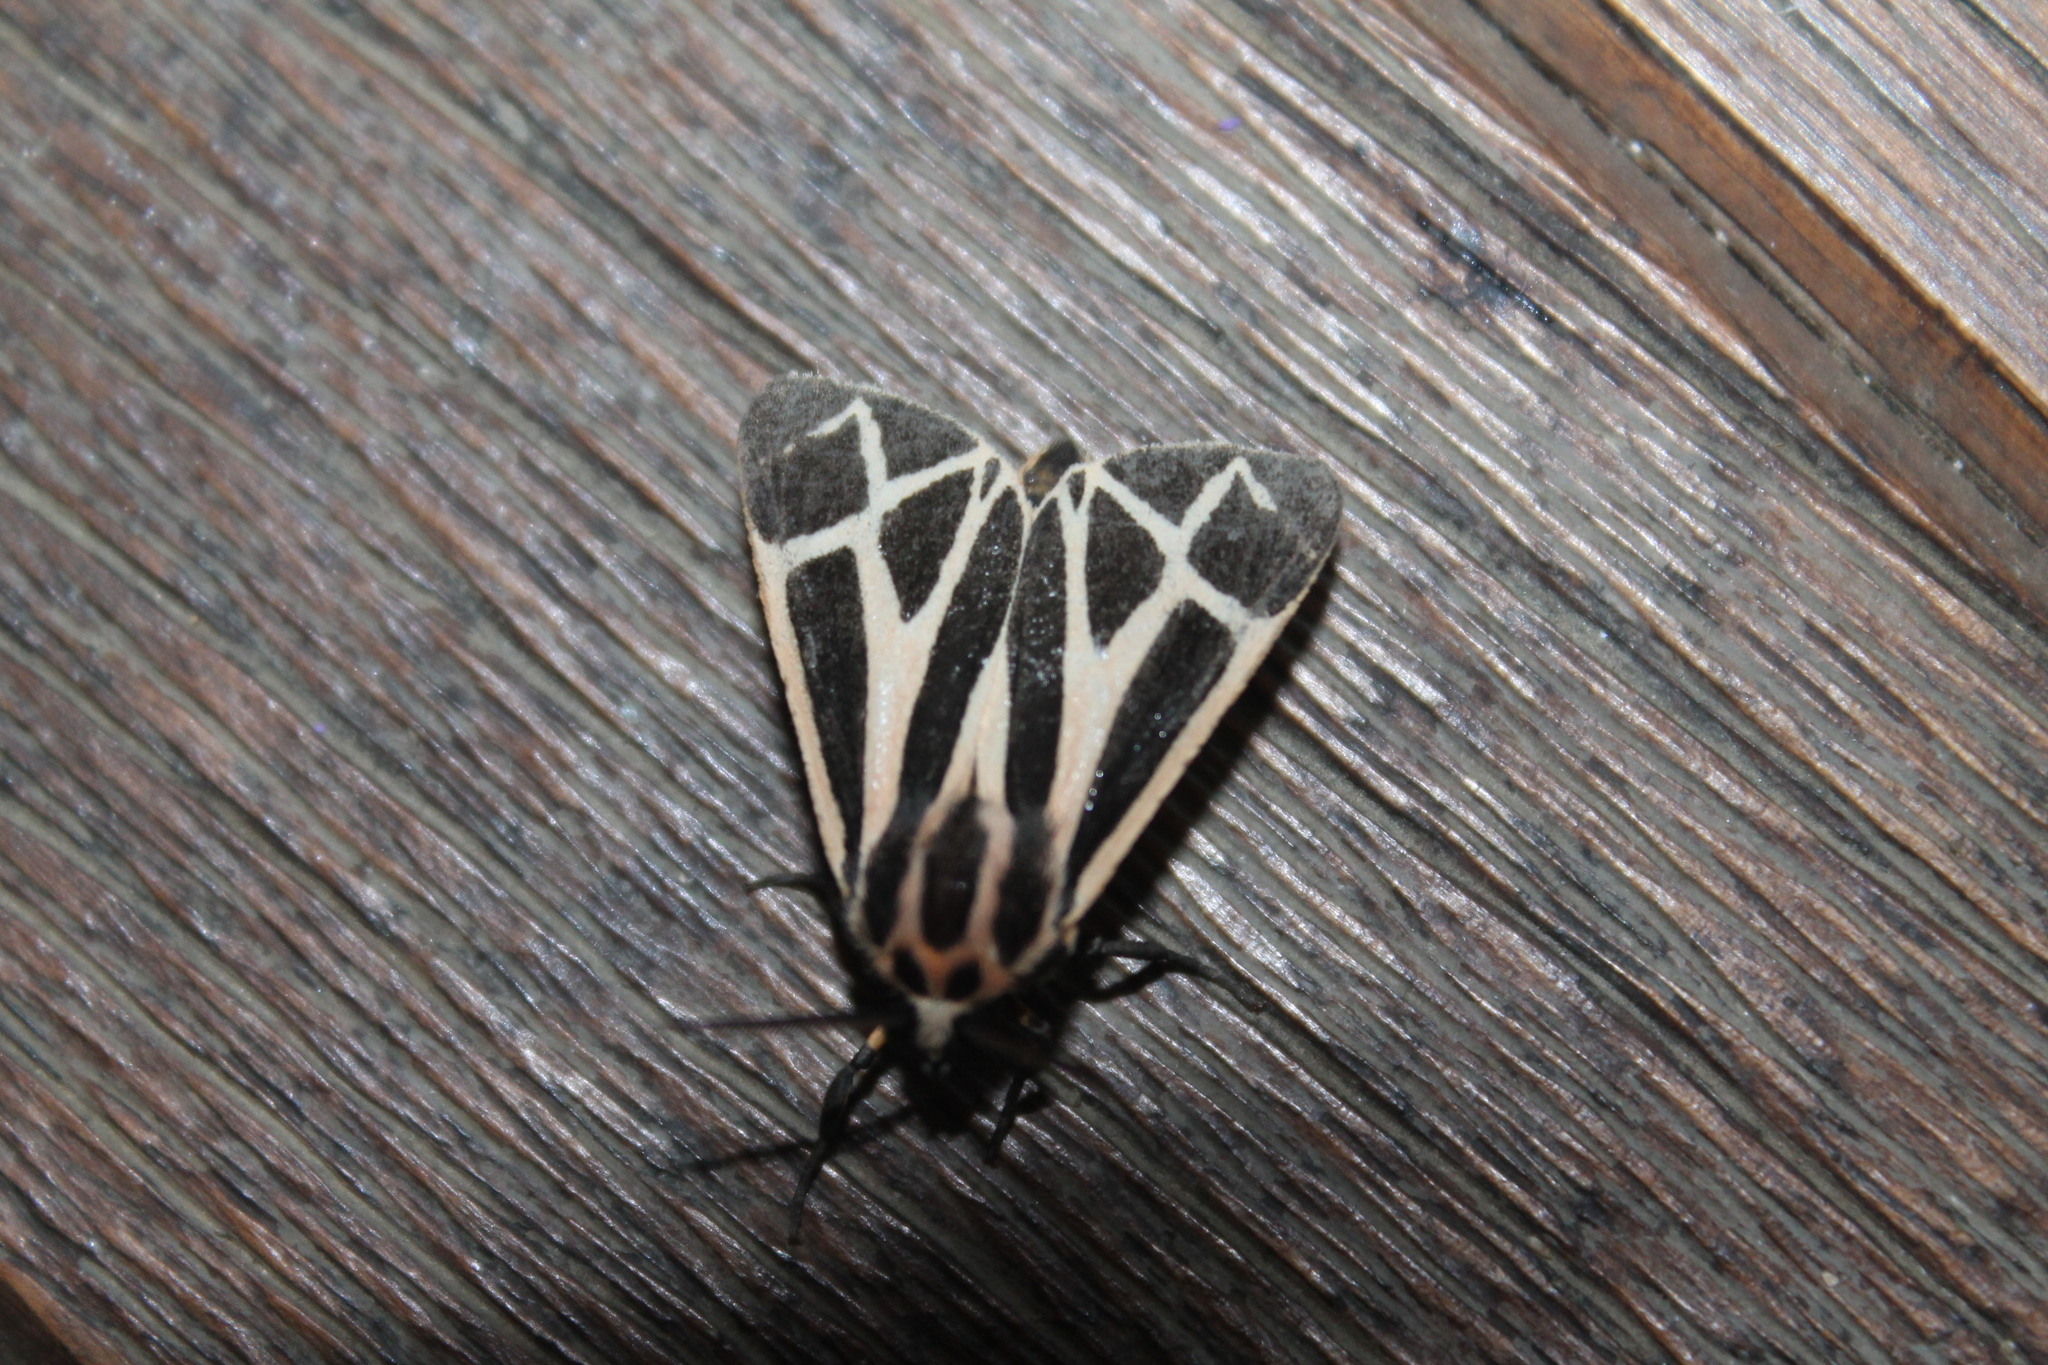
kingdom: Animalia
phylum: Arthropoda
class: Insecta
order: Lepidoptera
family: Erebidae
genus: Apantesis
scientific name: Apantesis phalerata
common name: Harnessed tiger moth
